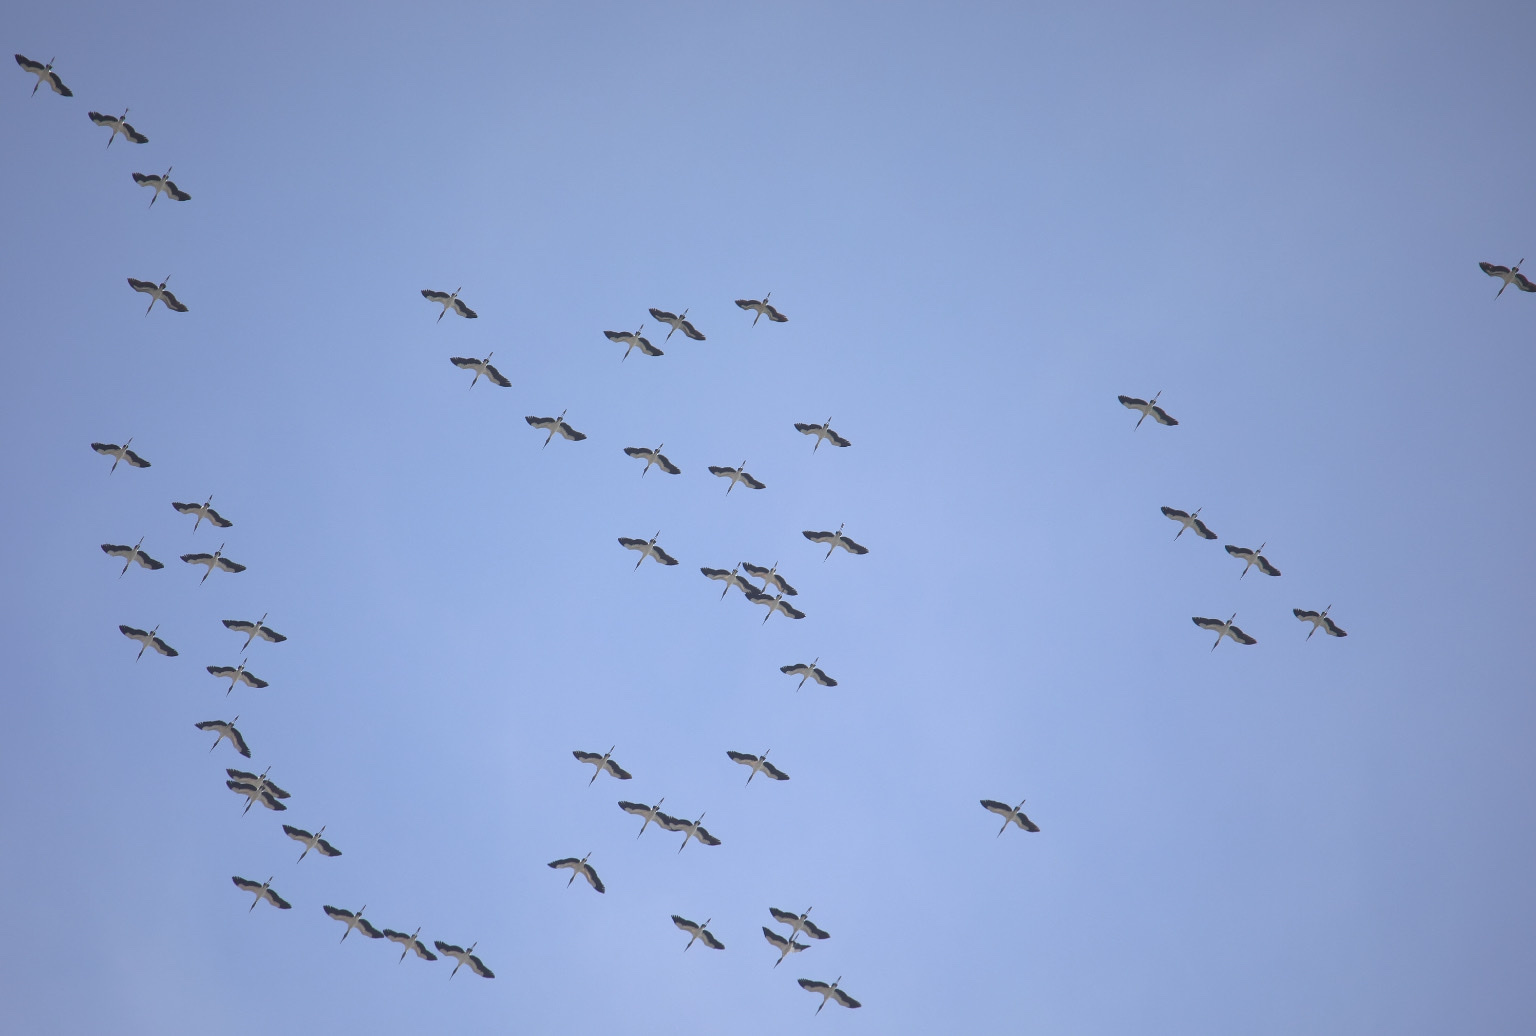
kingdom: Animalia
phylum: Chordata
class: Aves
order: Ciconiiformes
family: Ciconiidae
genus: Mycteria
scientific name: Mycteria americana
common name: Wood stork
